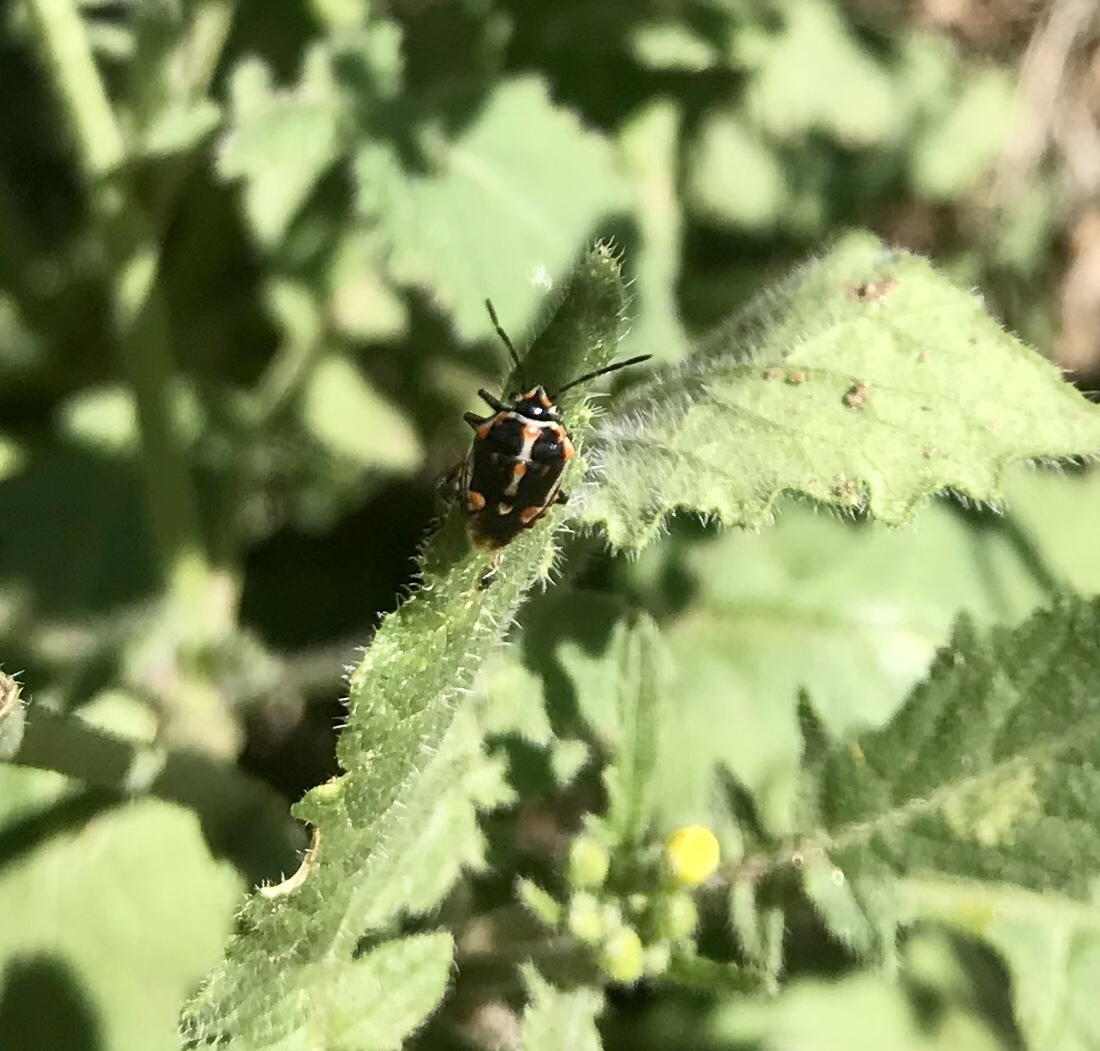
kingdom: Animalia
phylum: Arthropoda
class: Insecta
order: Hemiptera
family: Pentatomidae
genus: Bagrada
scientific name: Bagrada hilaris
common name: Bagrada bug
